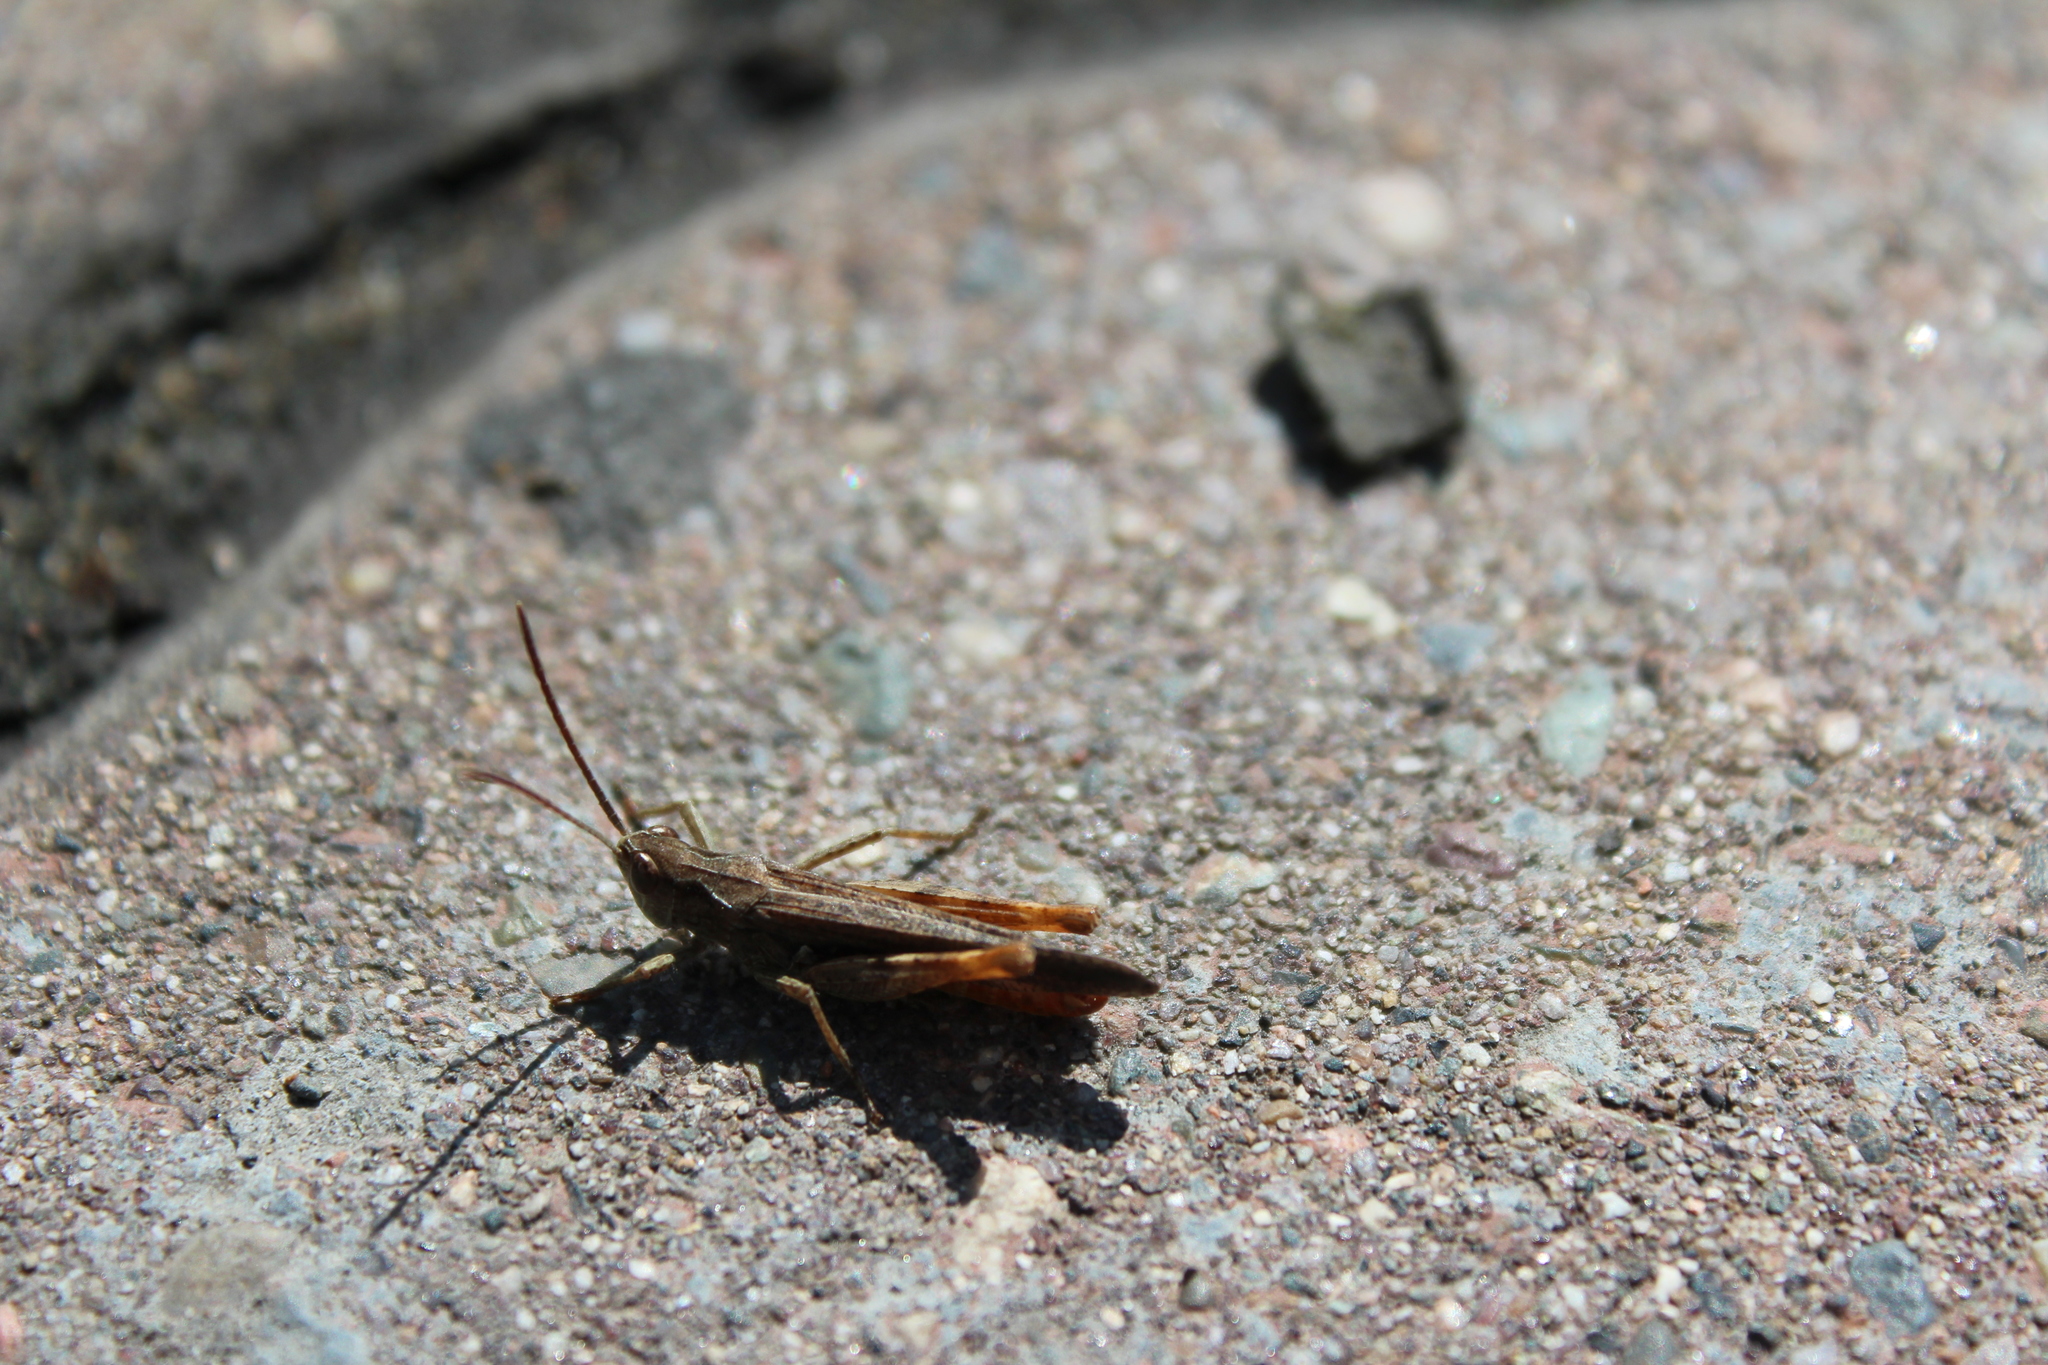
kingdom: Animalia
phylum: Arthropoda
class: Insecta
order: Orthoptera
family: Acrididae
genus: Glyptobothrus
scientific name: Glyptobothrus
